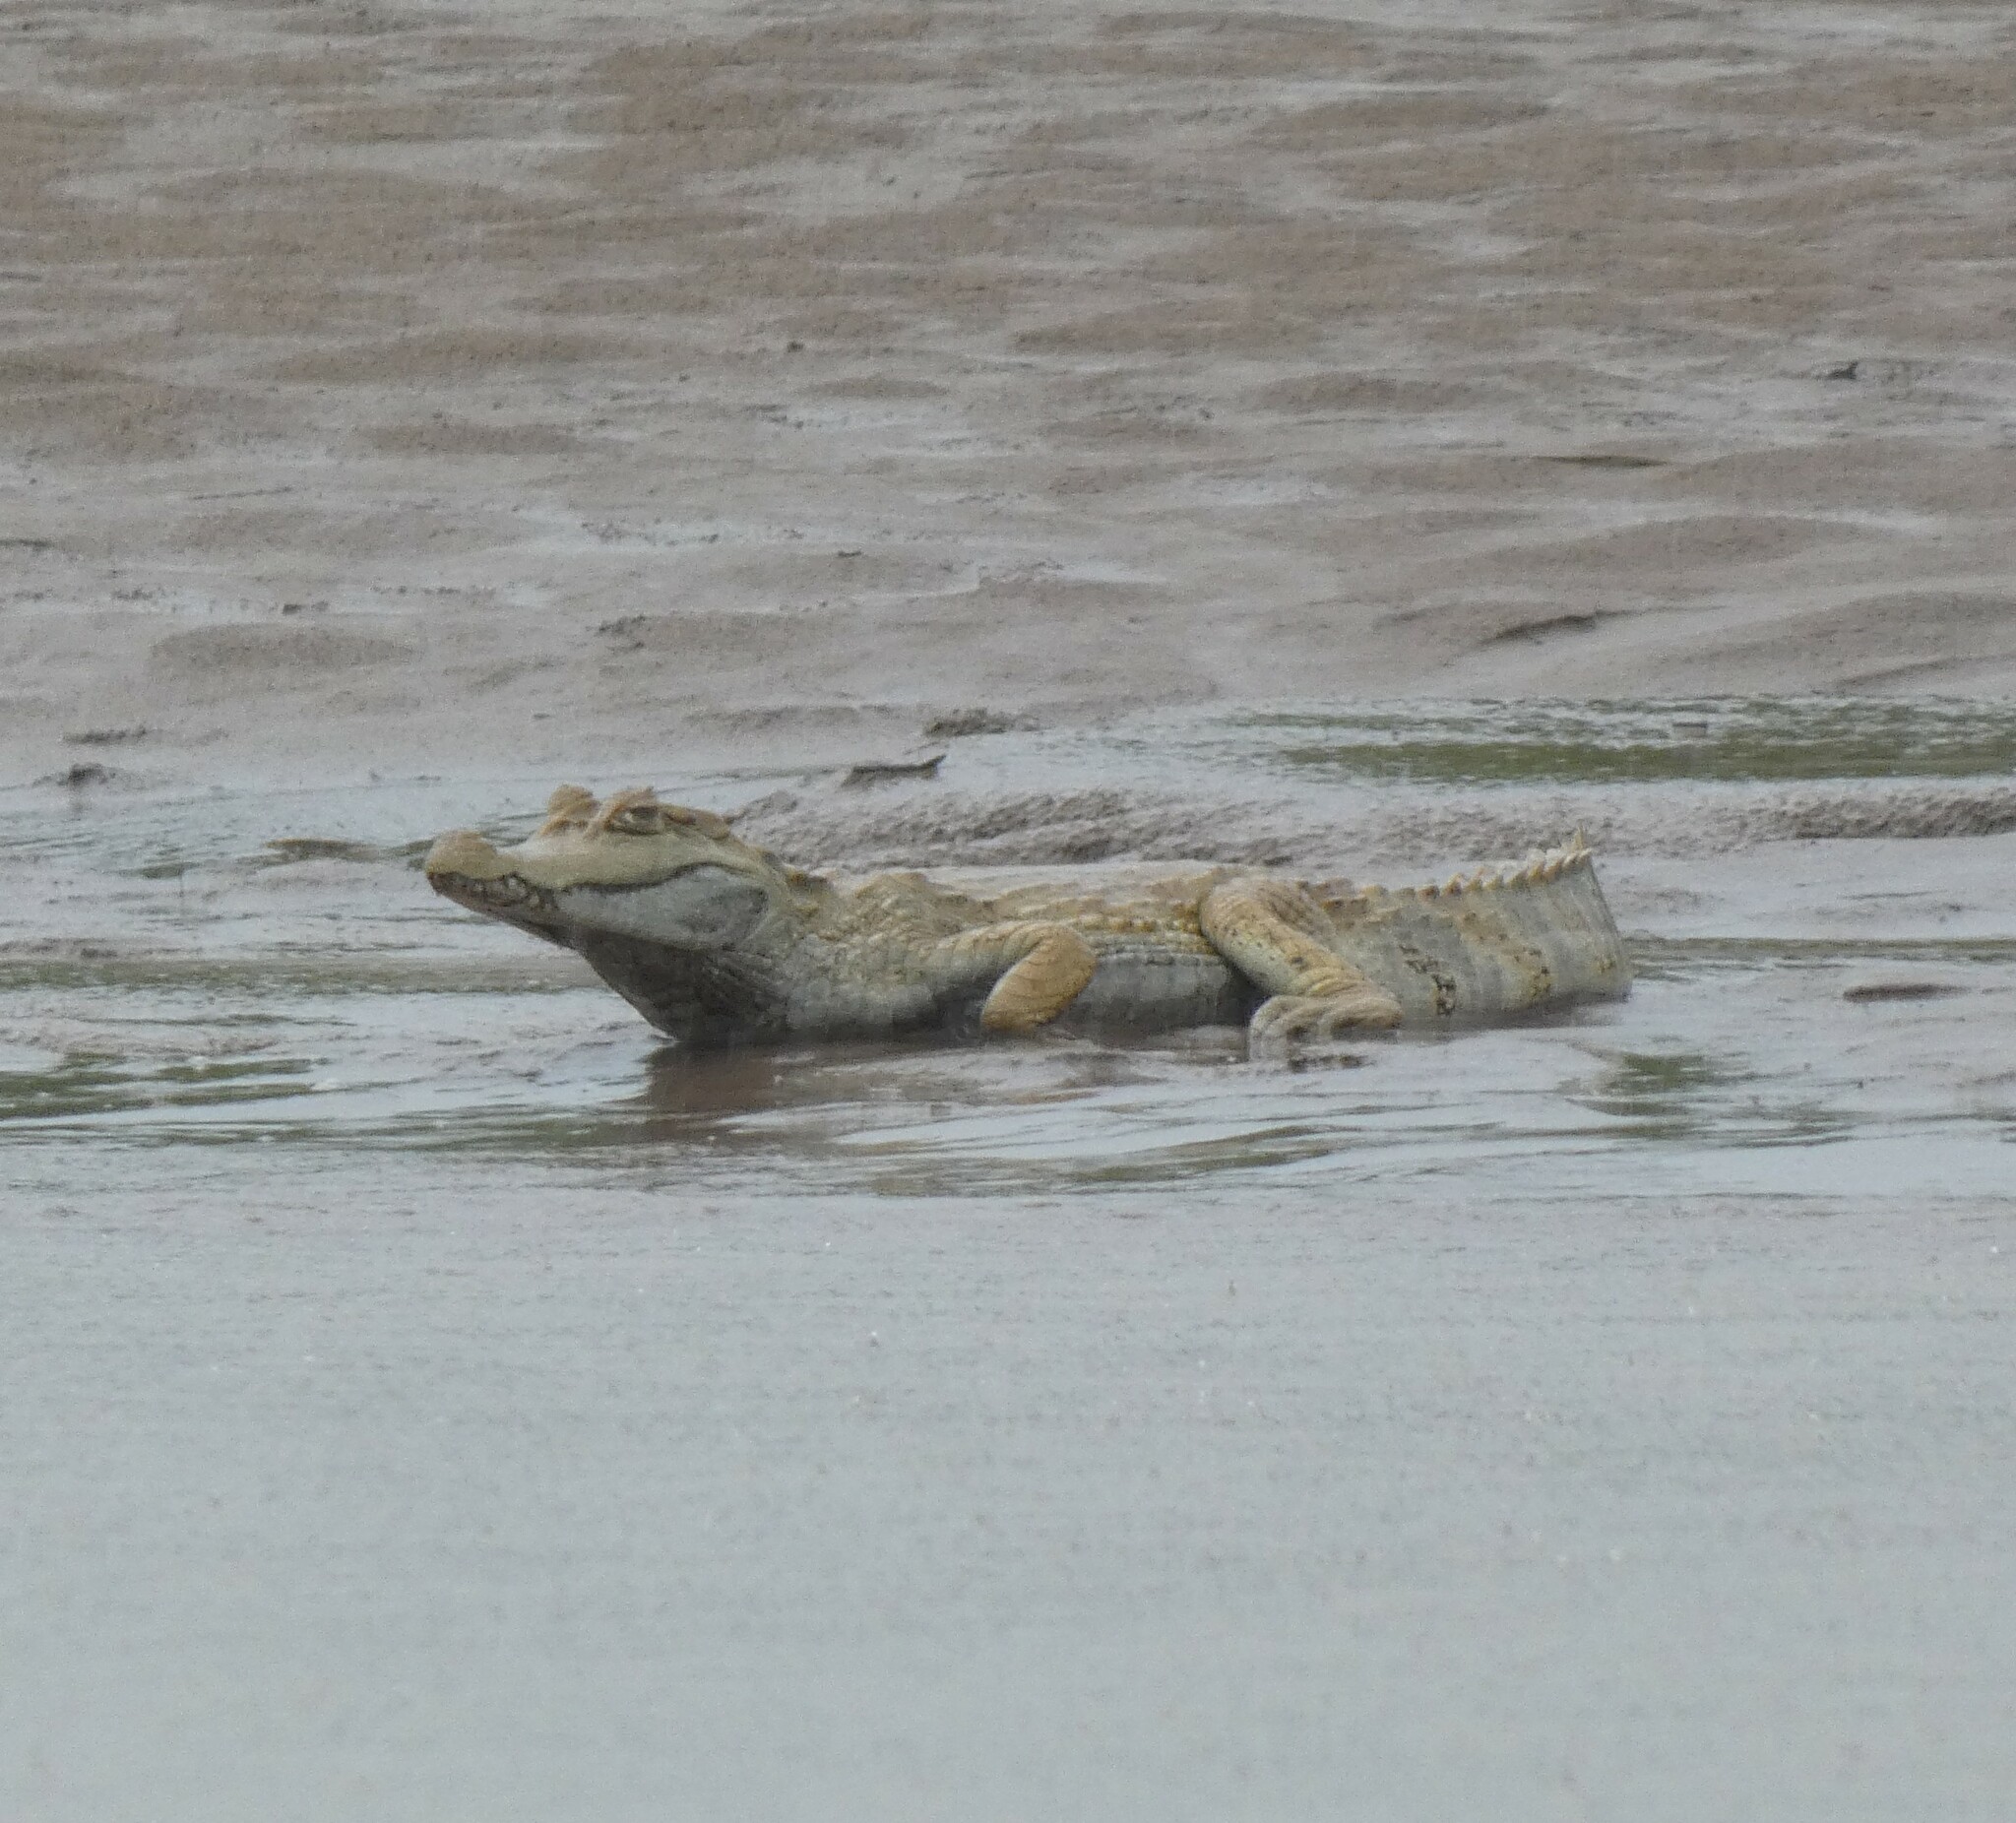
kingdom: Animalia
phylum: Chordata
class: Crocodylia
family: Alligatoridae
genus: Caiman
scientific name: Caiman crocodilus
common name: Common caiman
